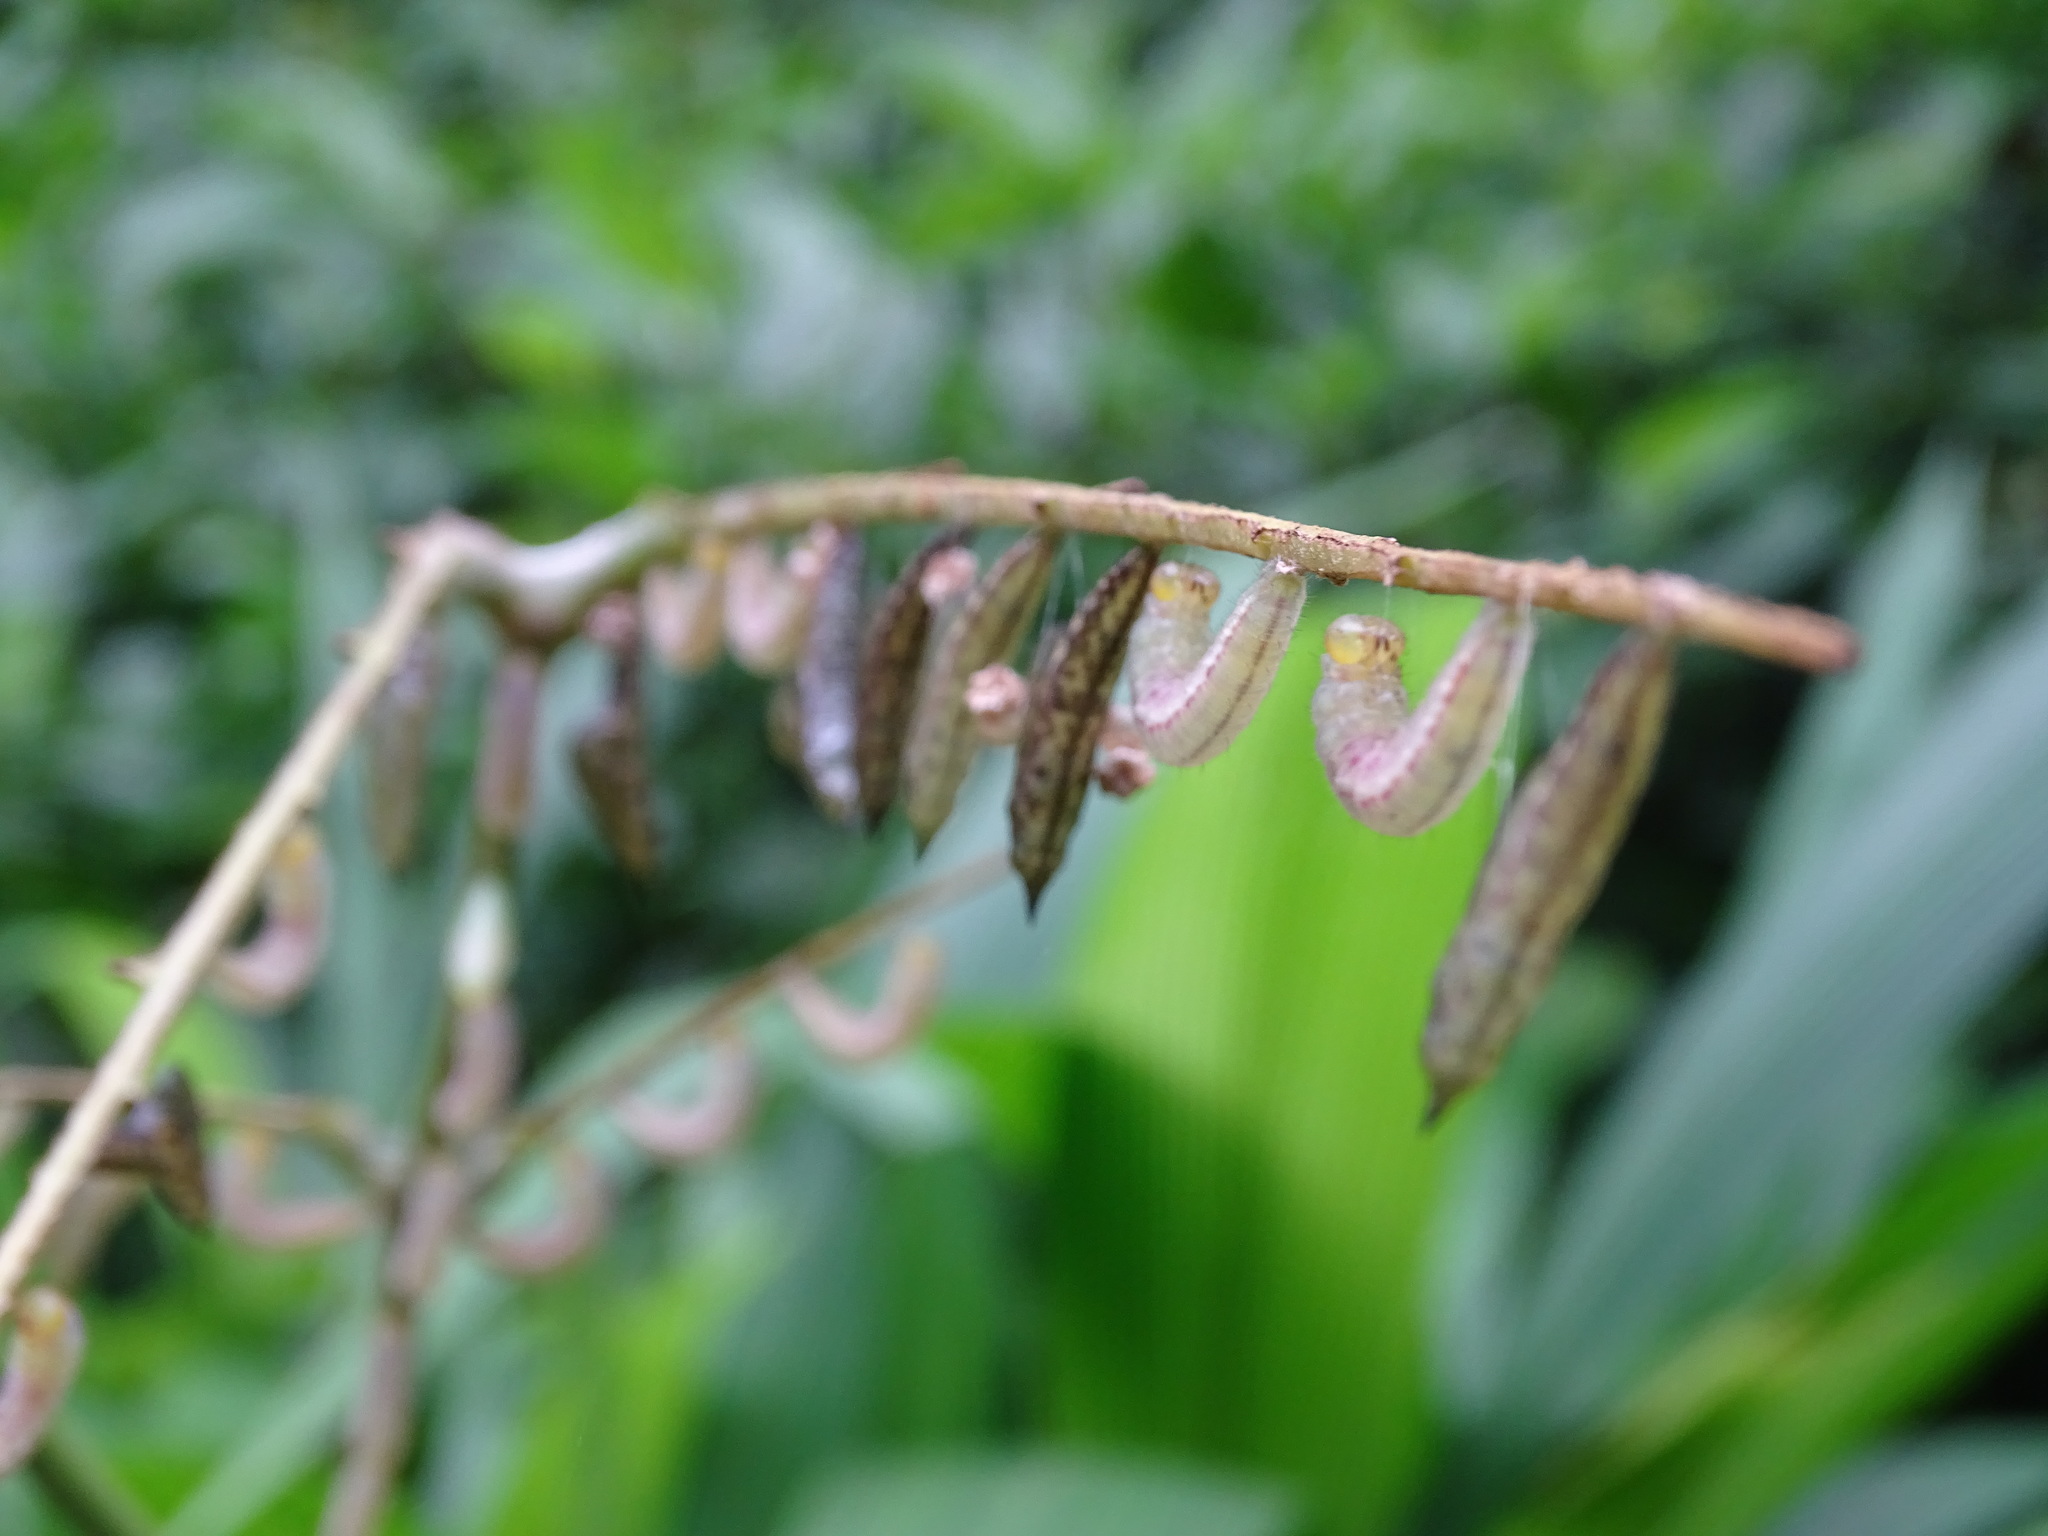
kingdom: Animalia
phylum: Arthropoda
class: Insecta
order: Lepidoptera
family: Pieridae
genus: Abaeis
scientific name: Abaeis
